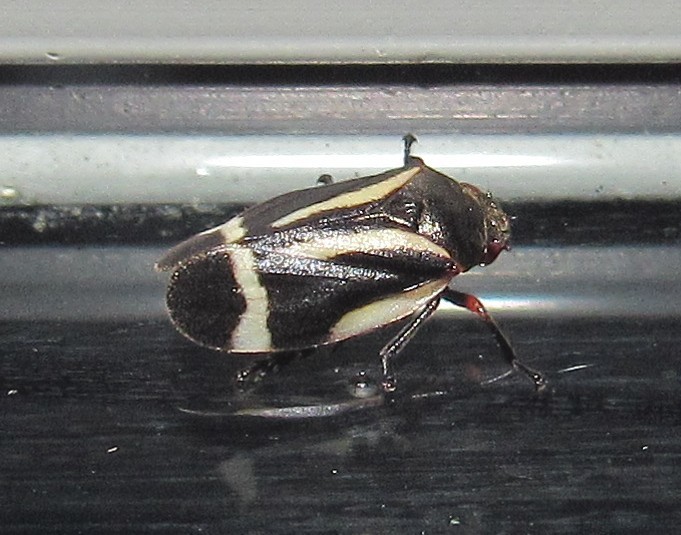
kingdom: Animalia
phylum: Arthropoda
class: Insecta
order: Hemiptera
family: Cercopidae
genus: Notozulia
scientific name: Notozulia entreriana
